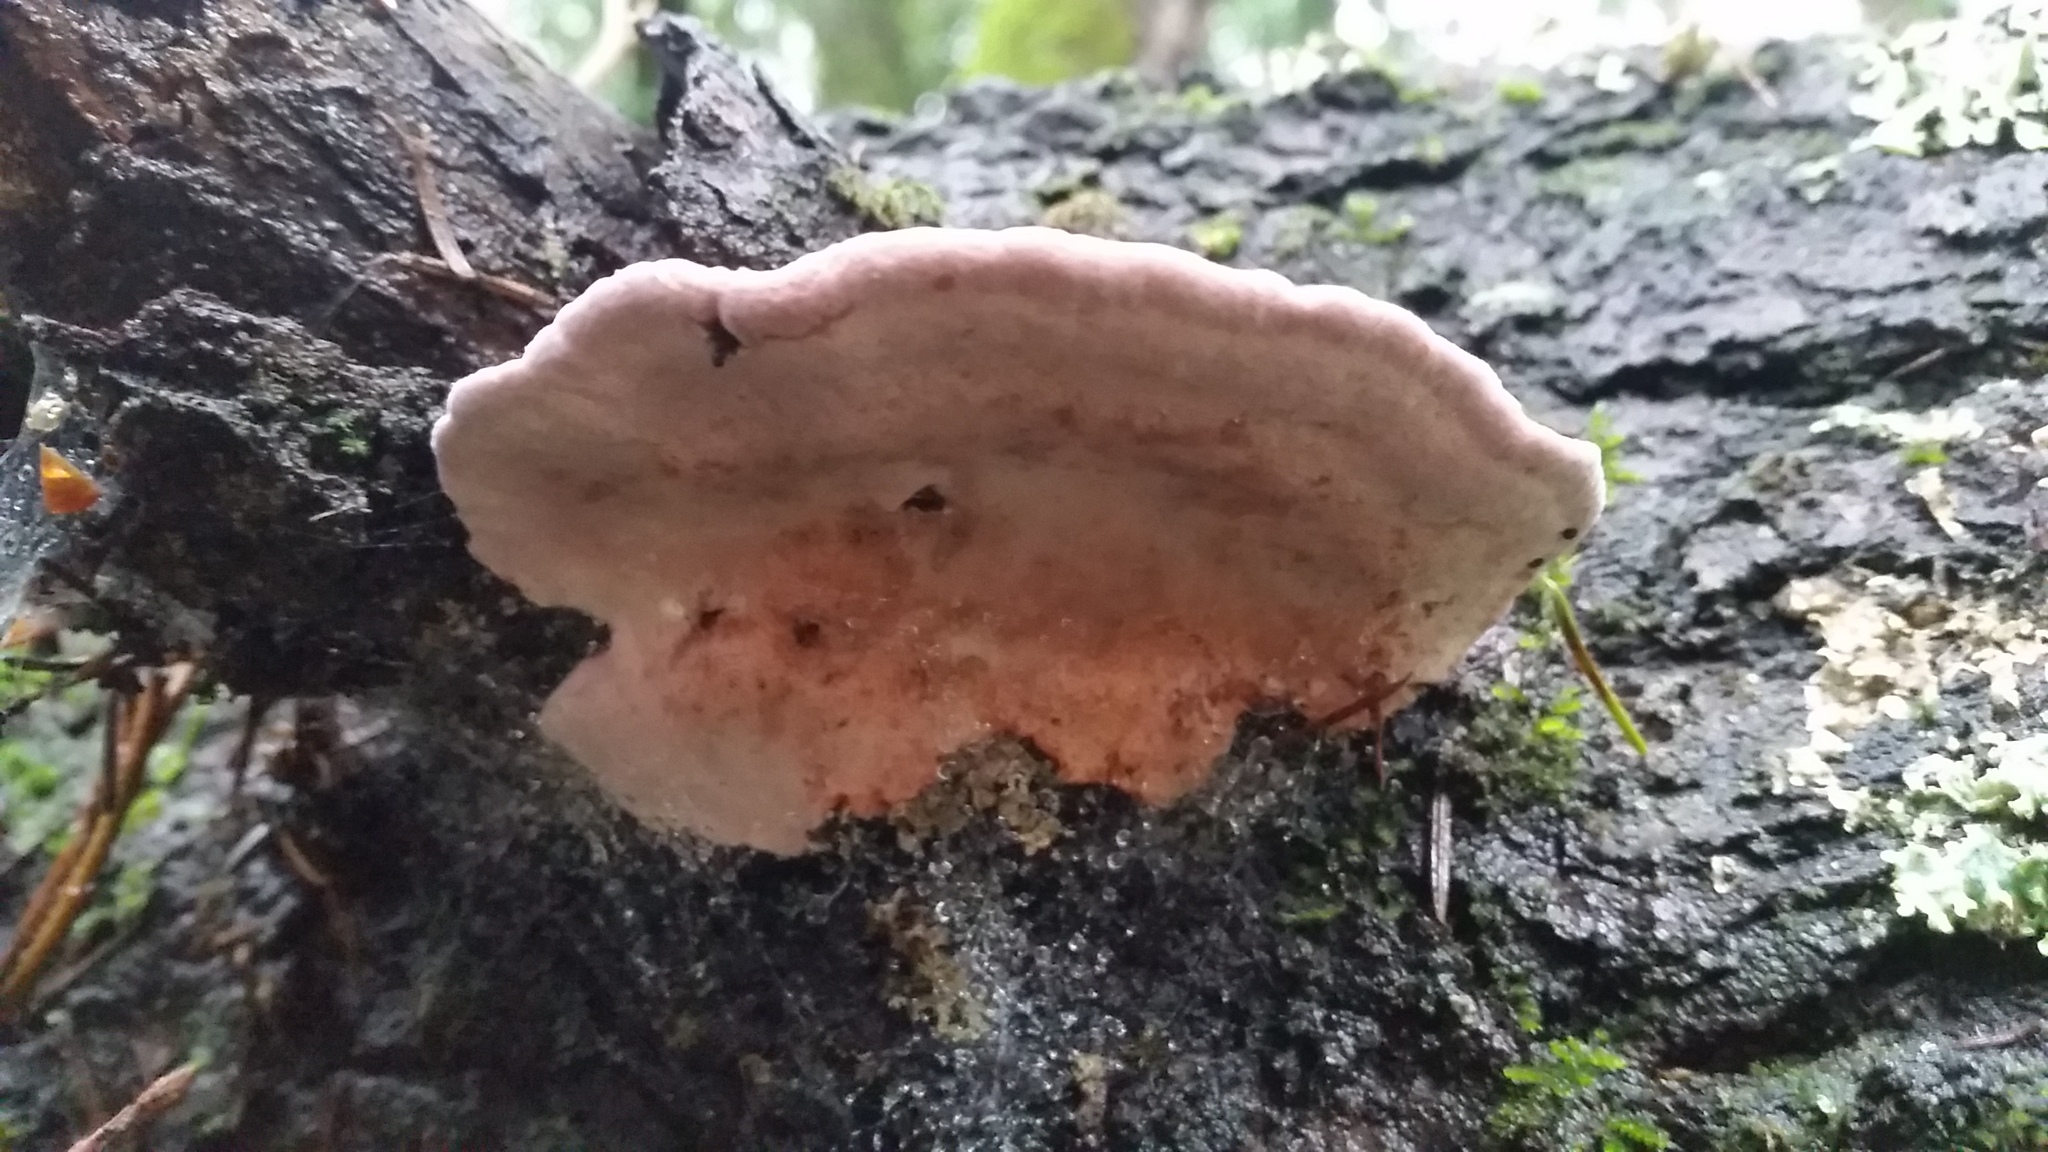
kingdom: Fungi
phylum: Basidiomycota
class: Agaricomycetes
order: Polyporales
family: Fomitopsidaceae
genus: Rhodofomes
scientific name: Rhodofomes cajanderi
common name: Rosy conk
